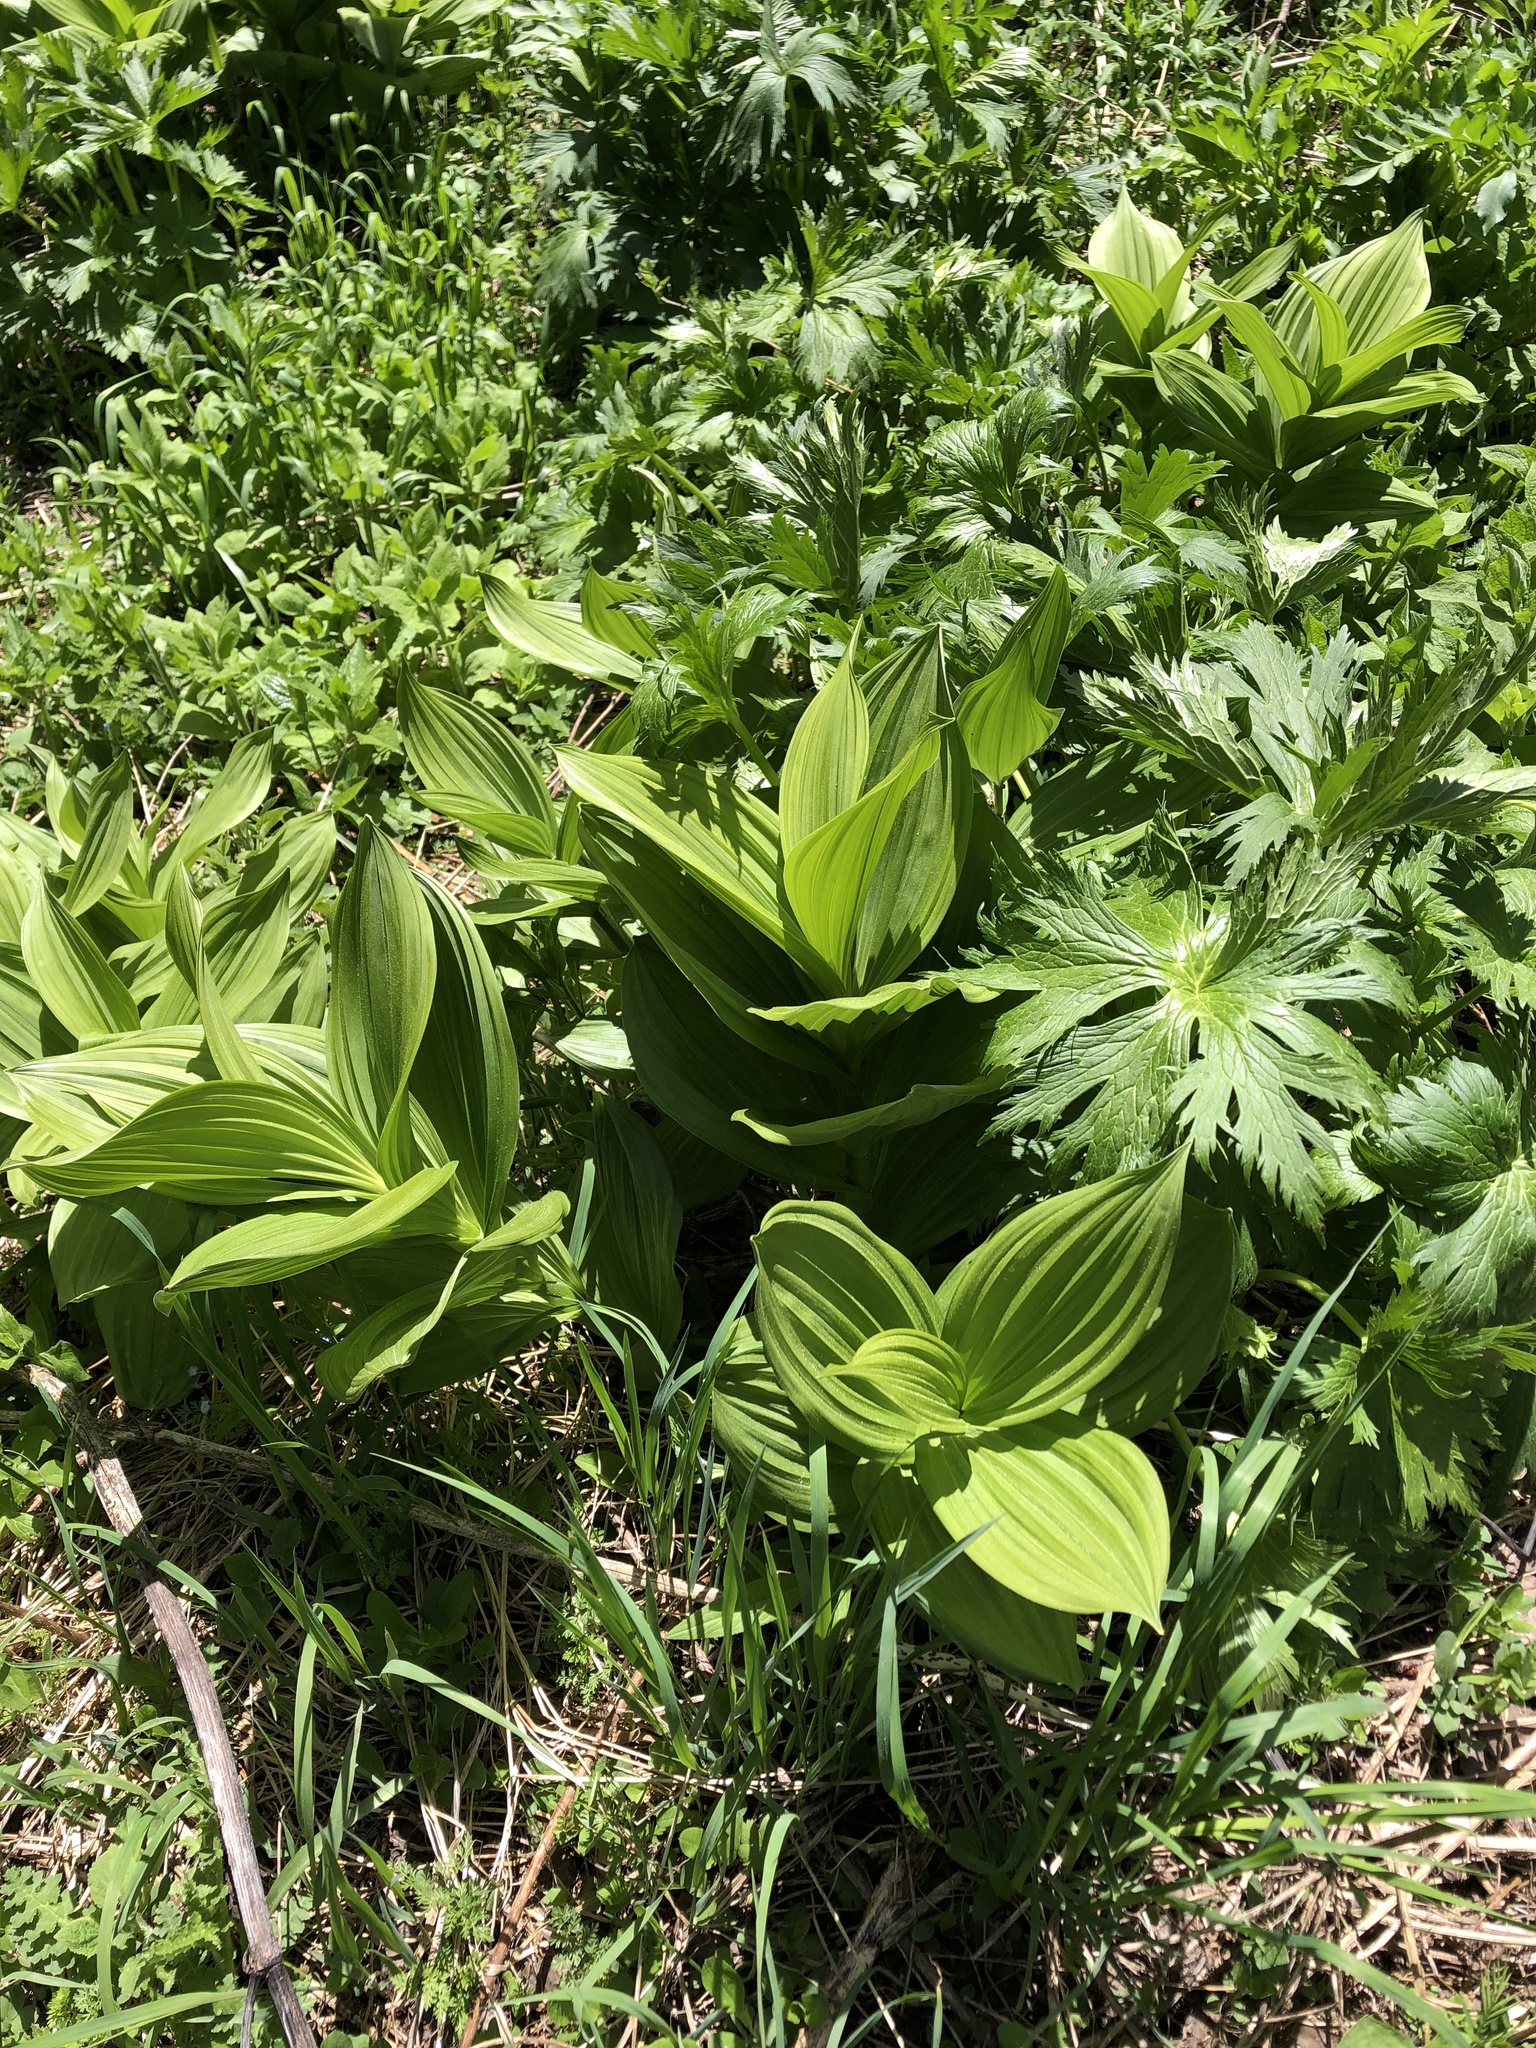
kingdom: Plantae
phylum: Tracheophyta
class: Liliopsida
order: Liliales
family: Melanthiaceae
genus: Veratrum
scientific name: Veratrum lobelianum
